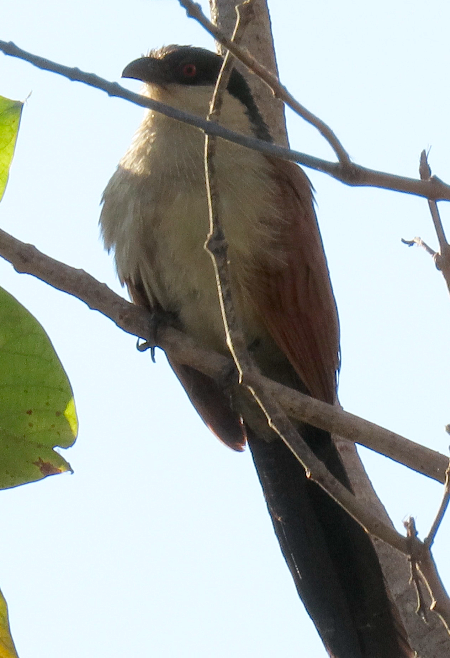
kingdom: Animalia
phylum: Chordata
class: Aves
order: Cuculiformes
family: Cuculidae
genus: Centropus
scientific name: Centropus senegalensis
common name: Senegal coucal
